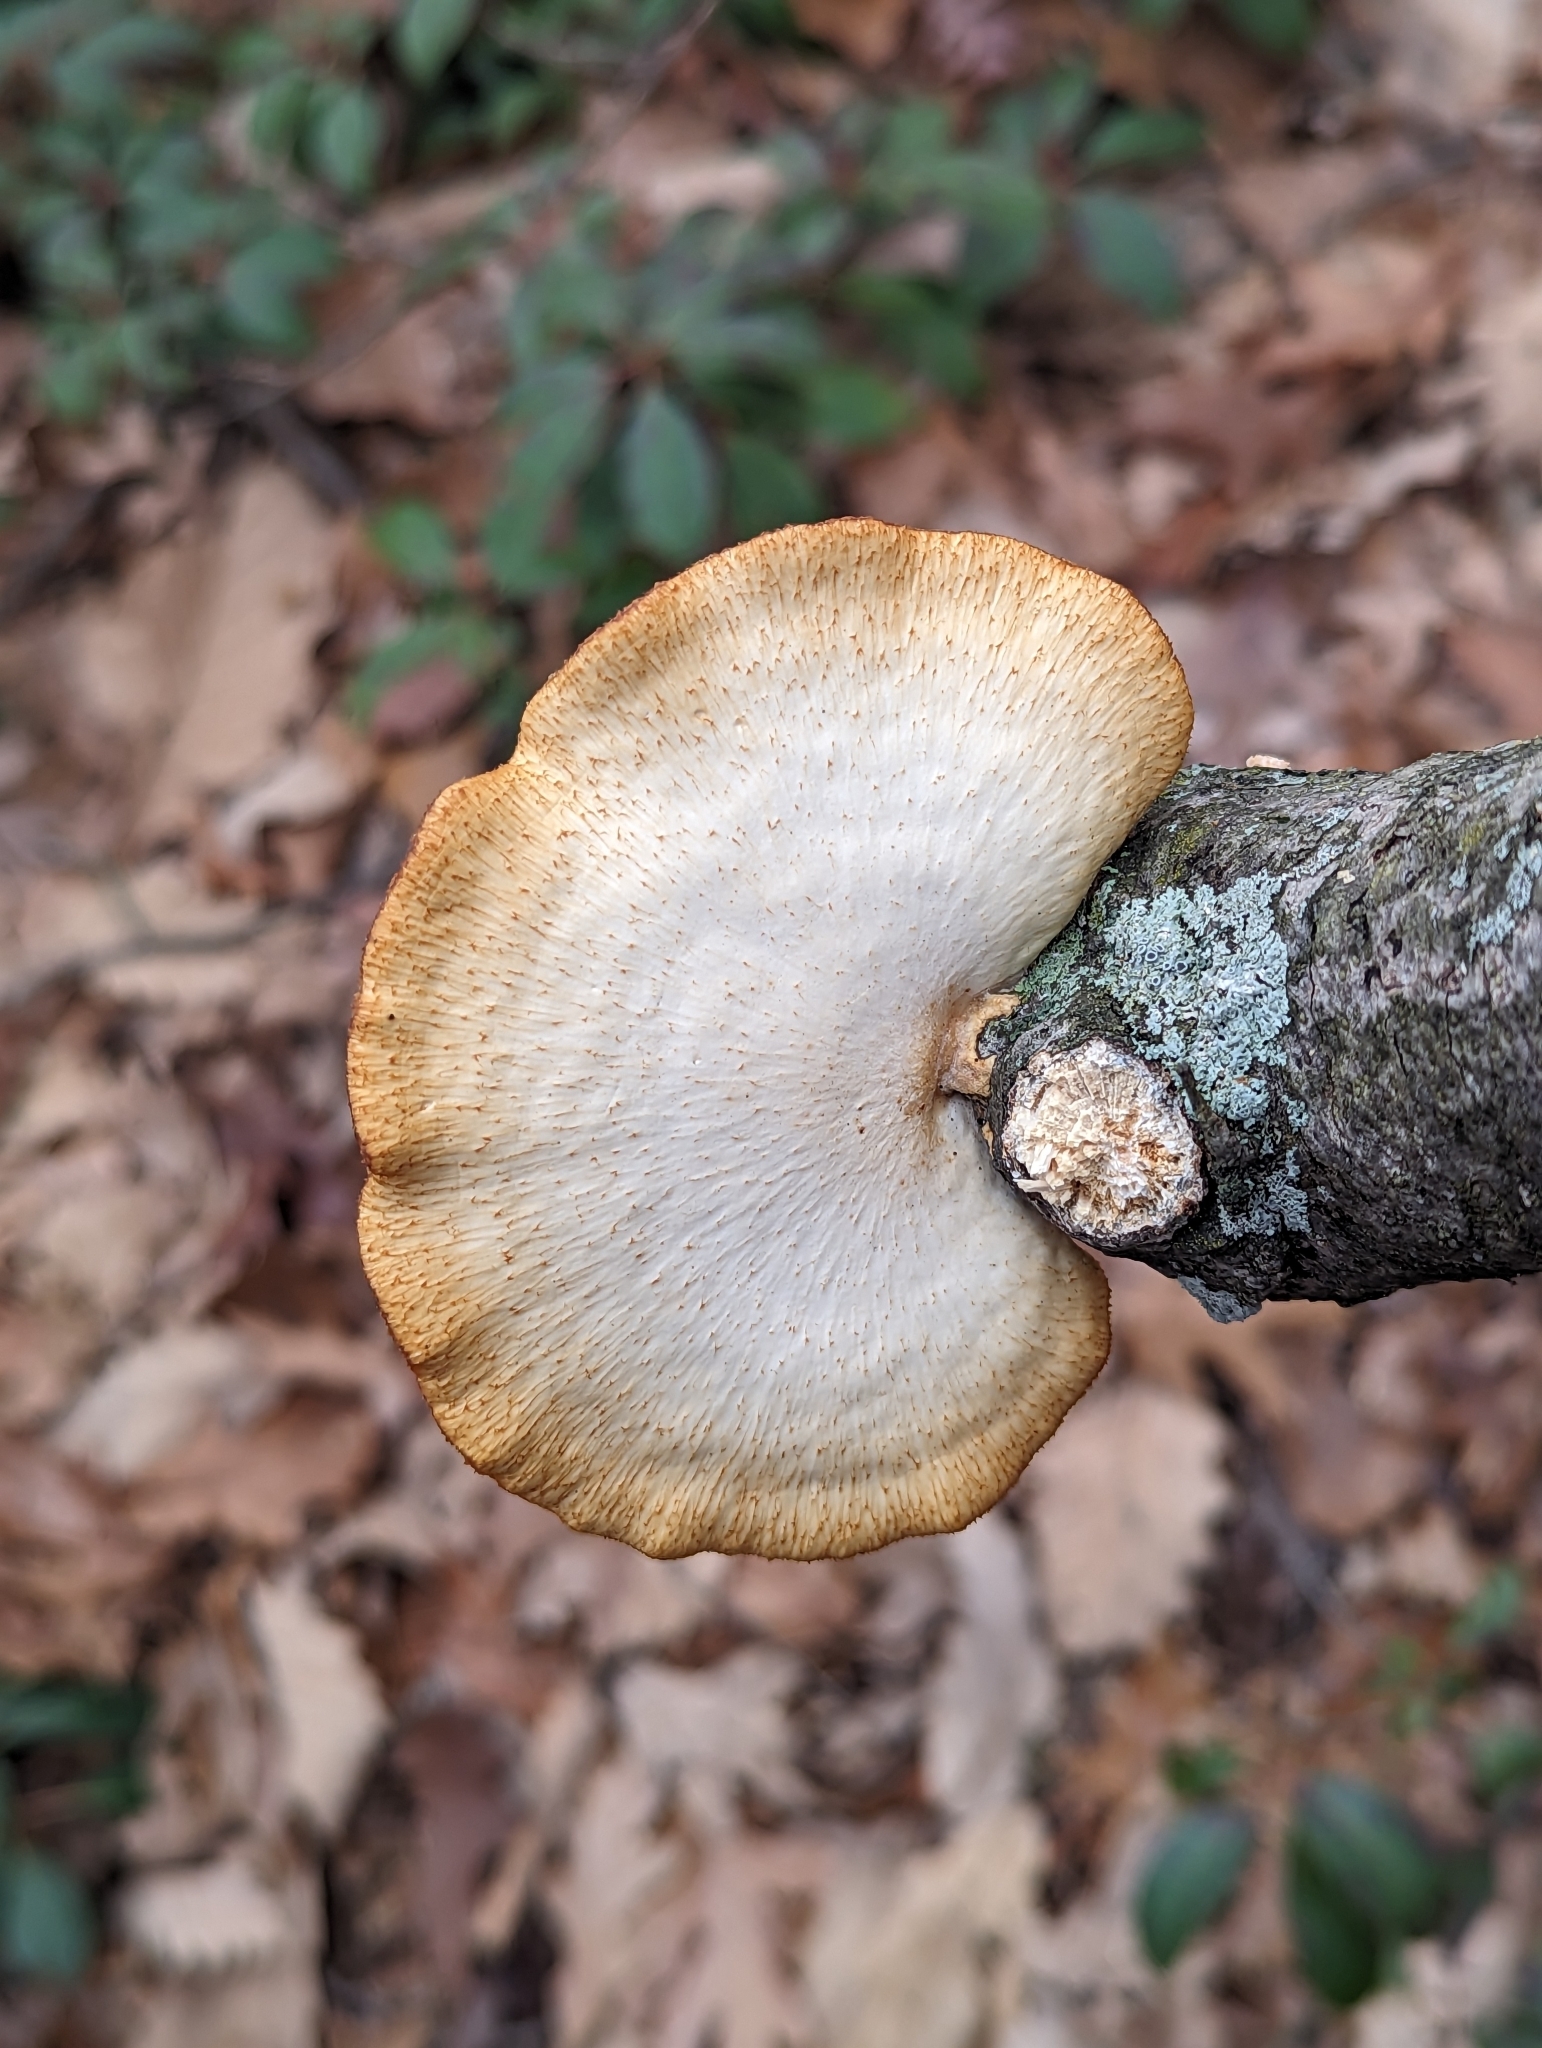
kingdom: Fungi
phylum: Basidiomycota
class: Agaricomycetes
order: Polyporales
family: Polyporaceae
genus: Neofavolus
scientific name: Neofavolus alveolaris
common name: Hexagonal-pored polypore
